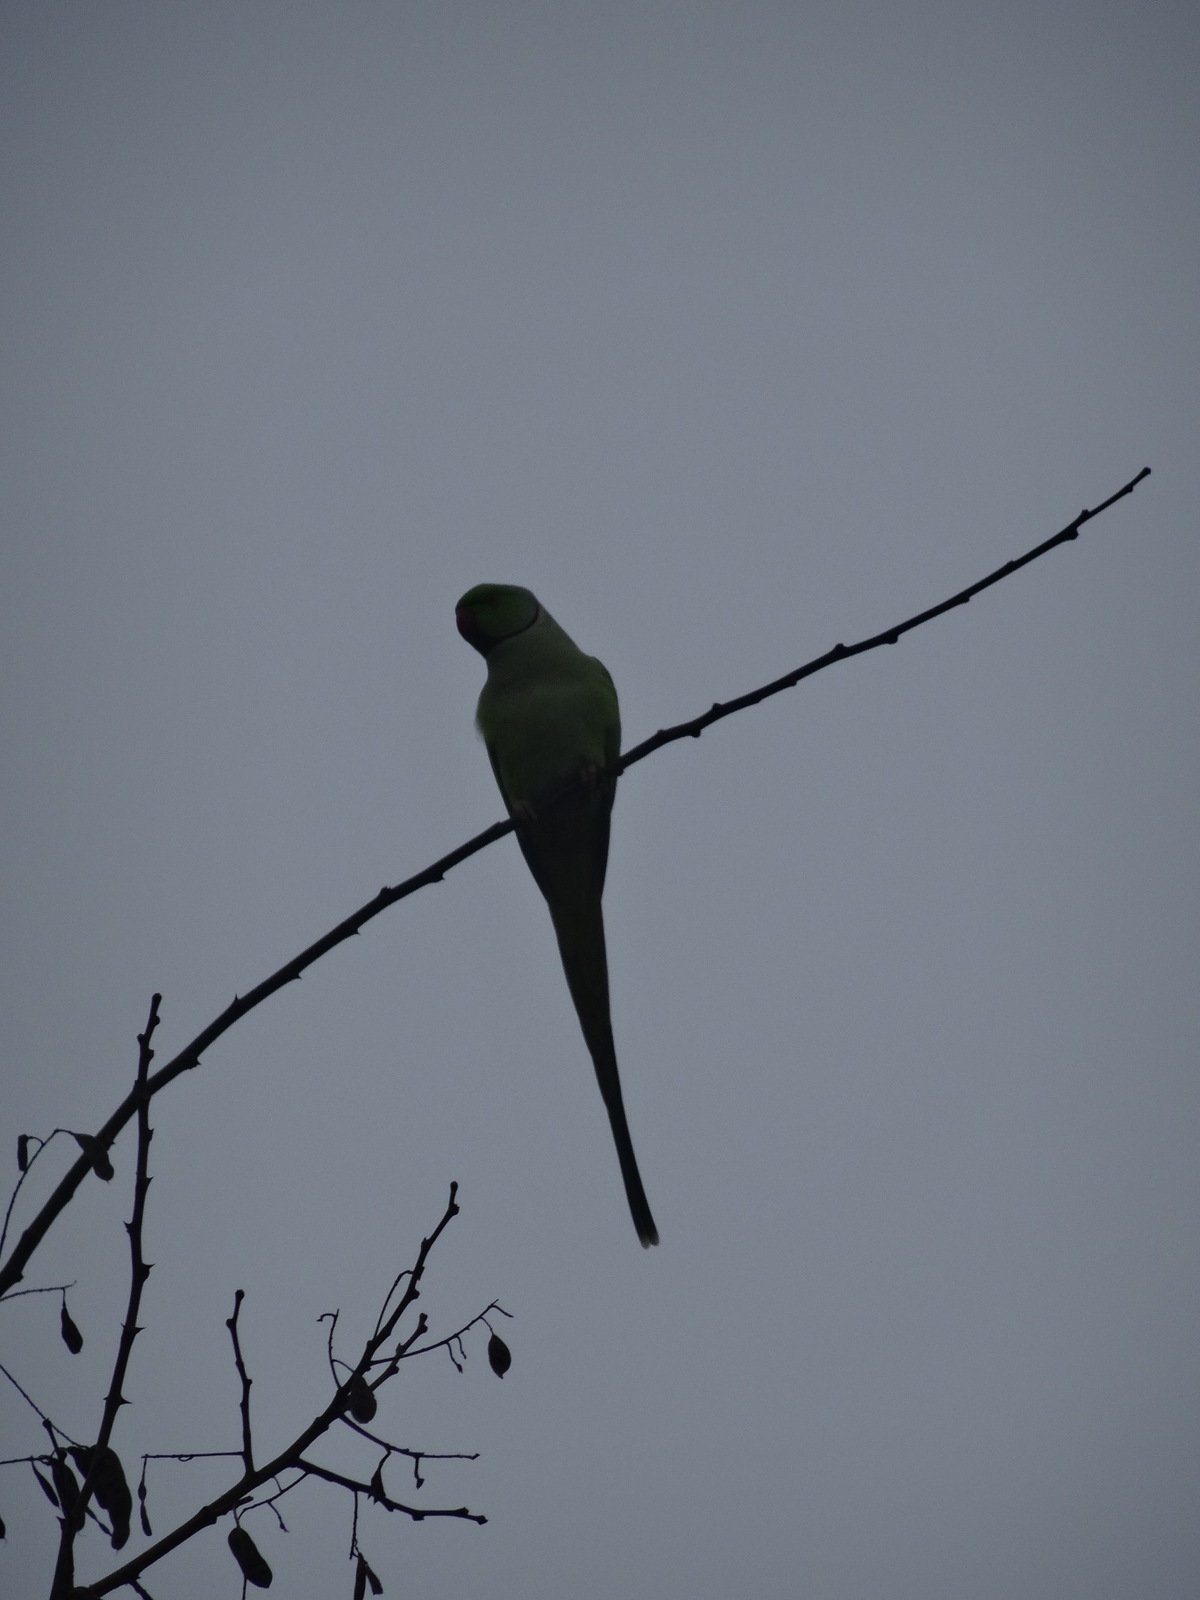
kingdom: Animalia
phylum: Chordata
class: Aves
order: Psittaciformes
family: Psittacidae
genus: Psittacula
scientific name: Psittacula krameri
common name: Rose-ringed parakeet
